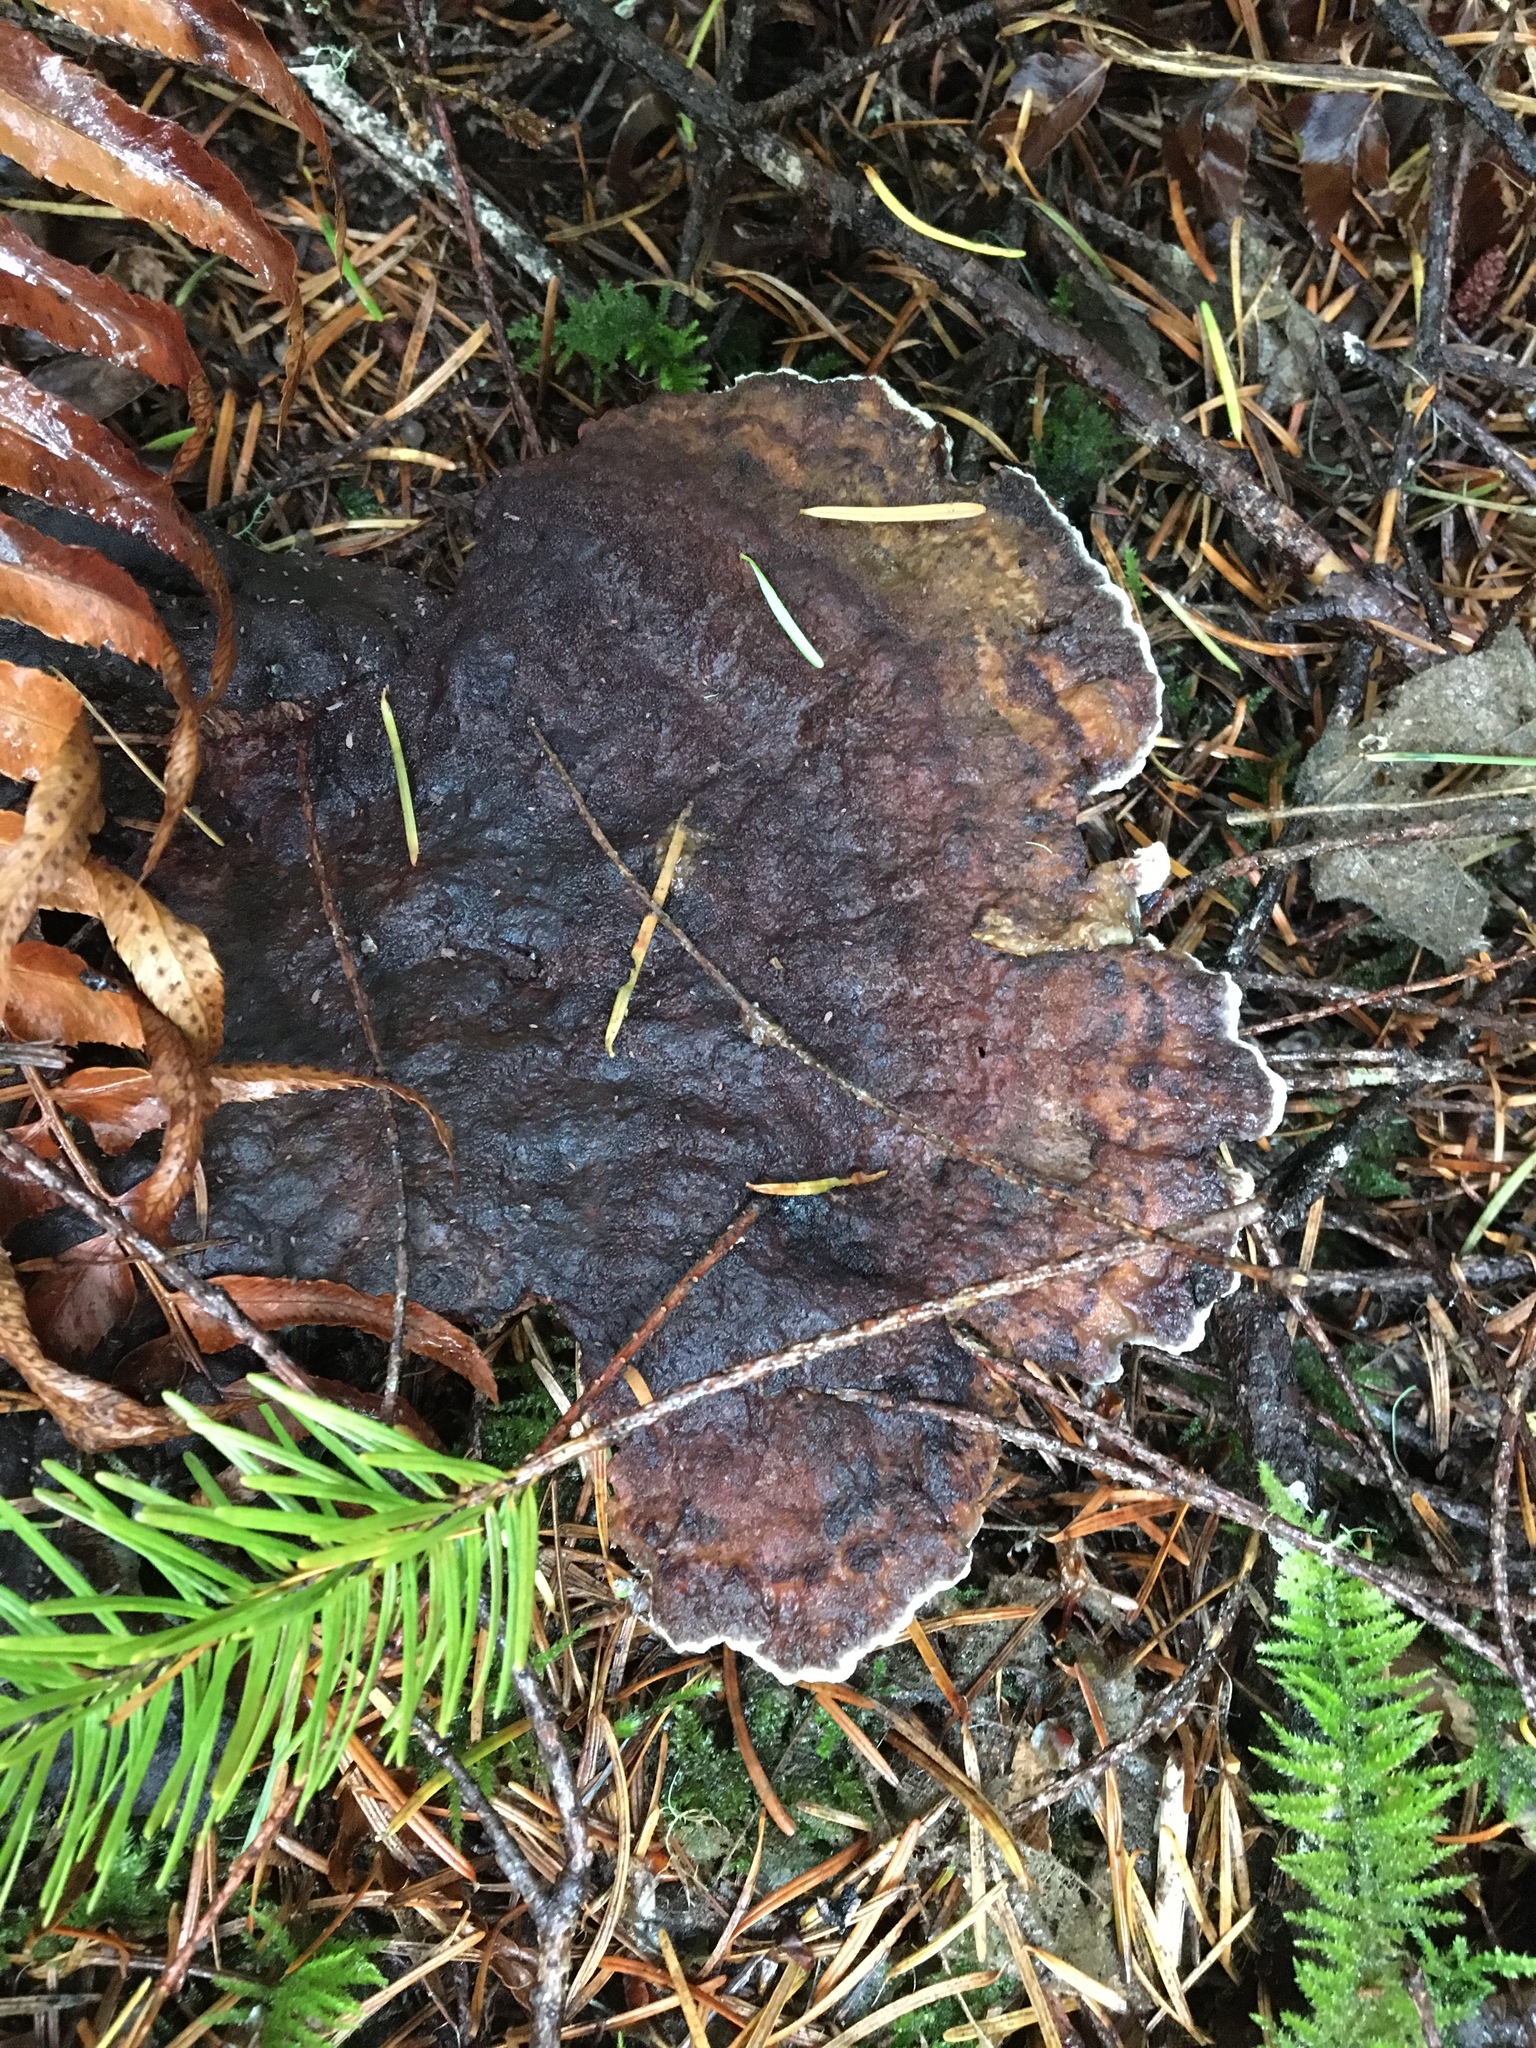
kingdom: Fungi
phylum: Basidiomycota
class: Agaricomycetes
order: Polyporales
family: Laetiporaceae
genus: Phaeolus
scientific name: Phaeolus schweinitzii
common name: Dyer's mazegill
